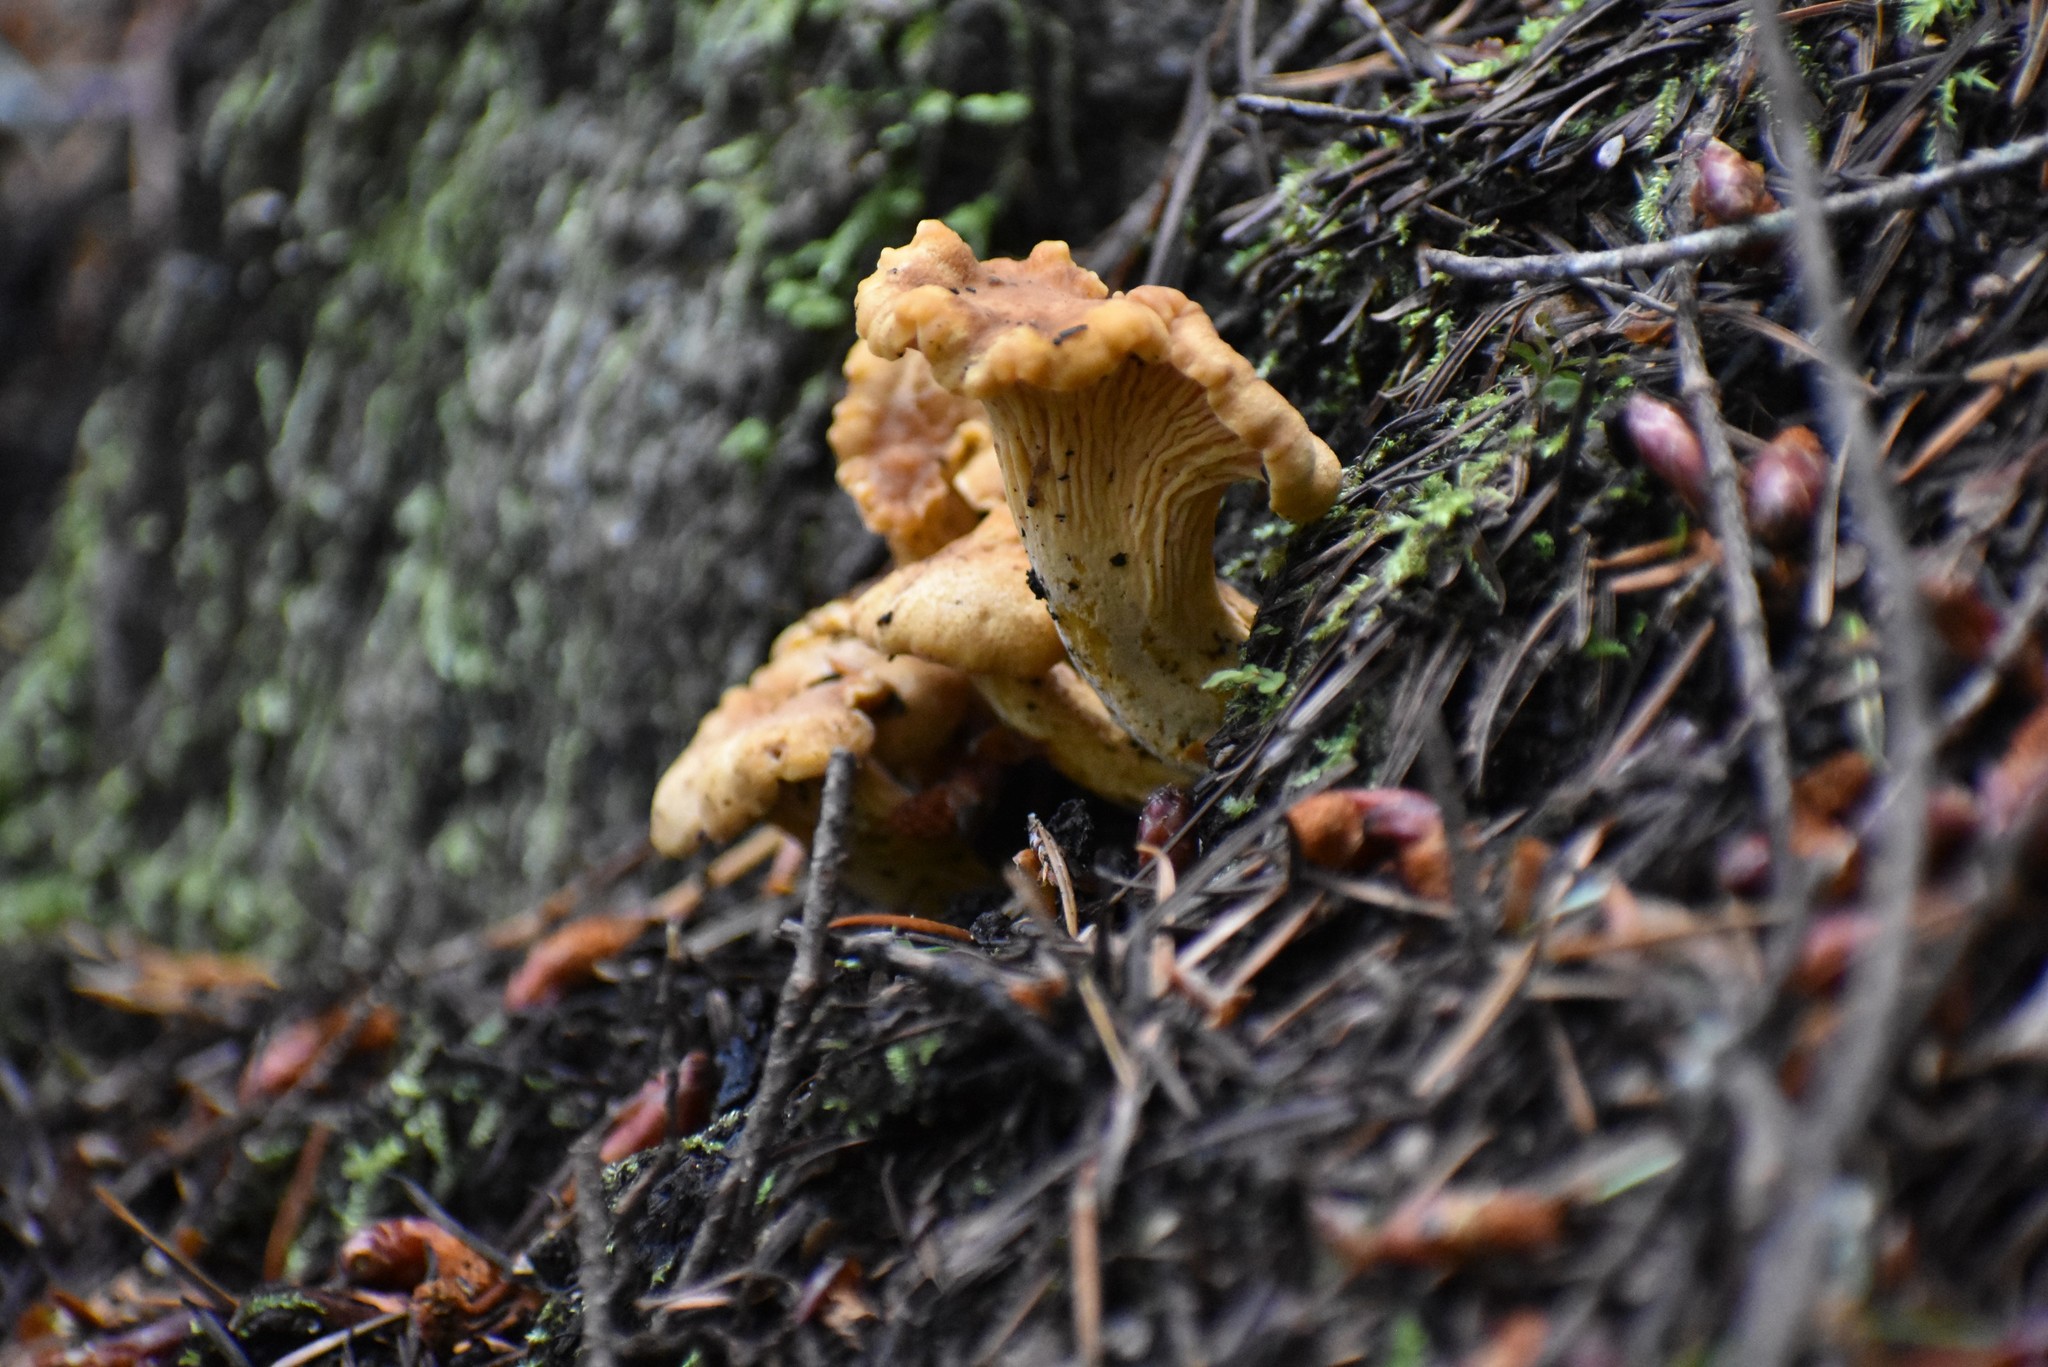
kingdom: Fungi
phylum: Basidiomycota
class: Agaricomycetes
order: Cantharellales
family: Hydnaceae
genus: Cantharellus
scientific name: Cantharellus formosus
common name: Pacific golden chanterelle
